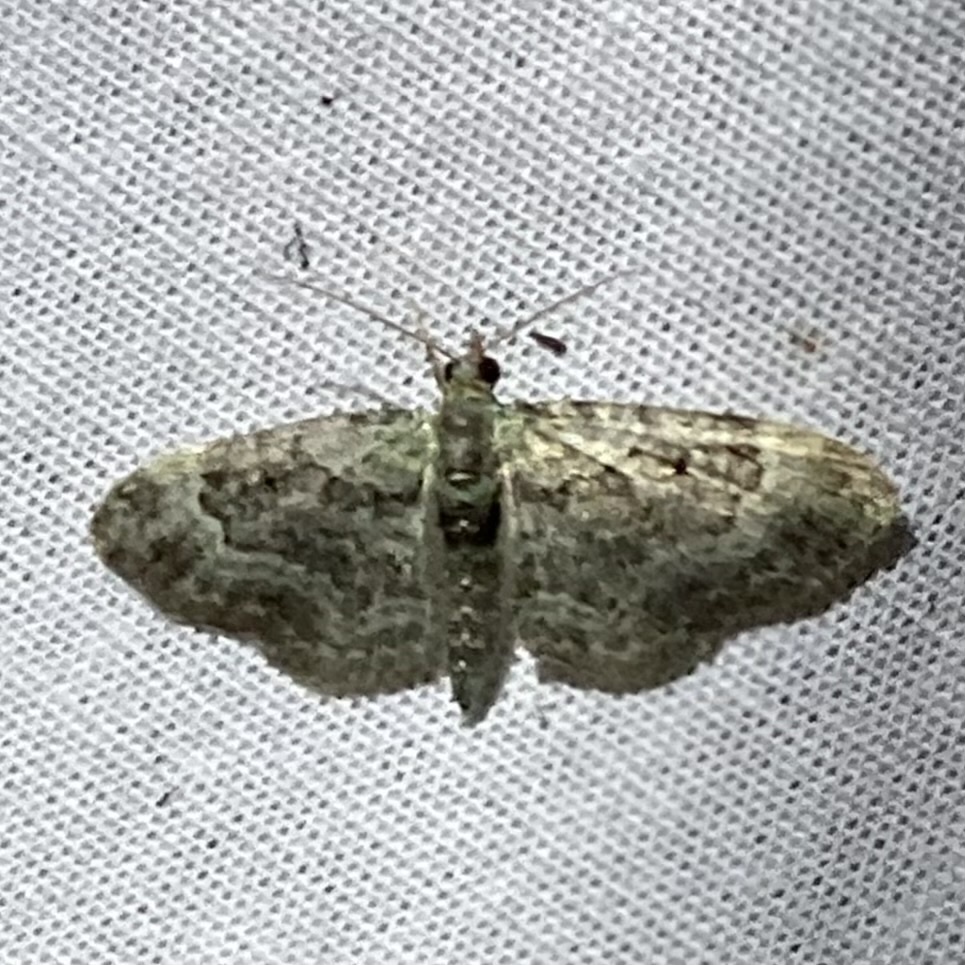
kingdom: Animalia
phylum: Arthropoda
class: Insecta
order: Lepidoptera
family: Geometridae
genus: Pasiphila
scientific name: Pasiphila rectangulata
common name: Green pug
